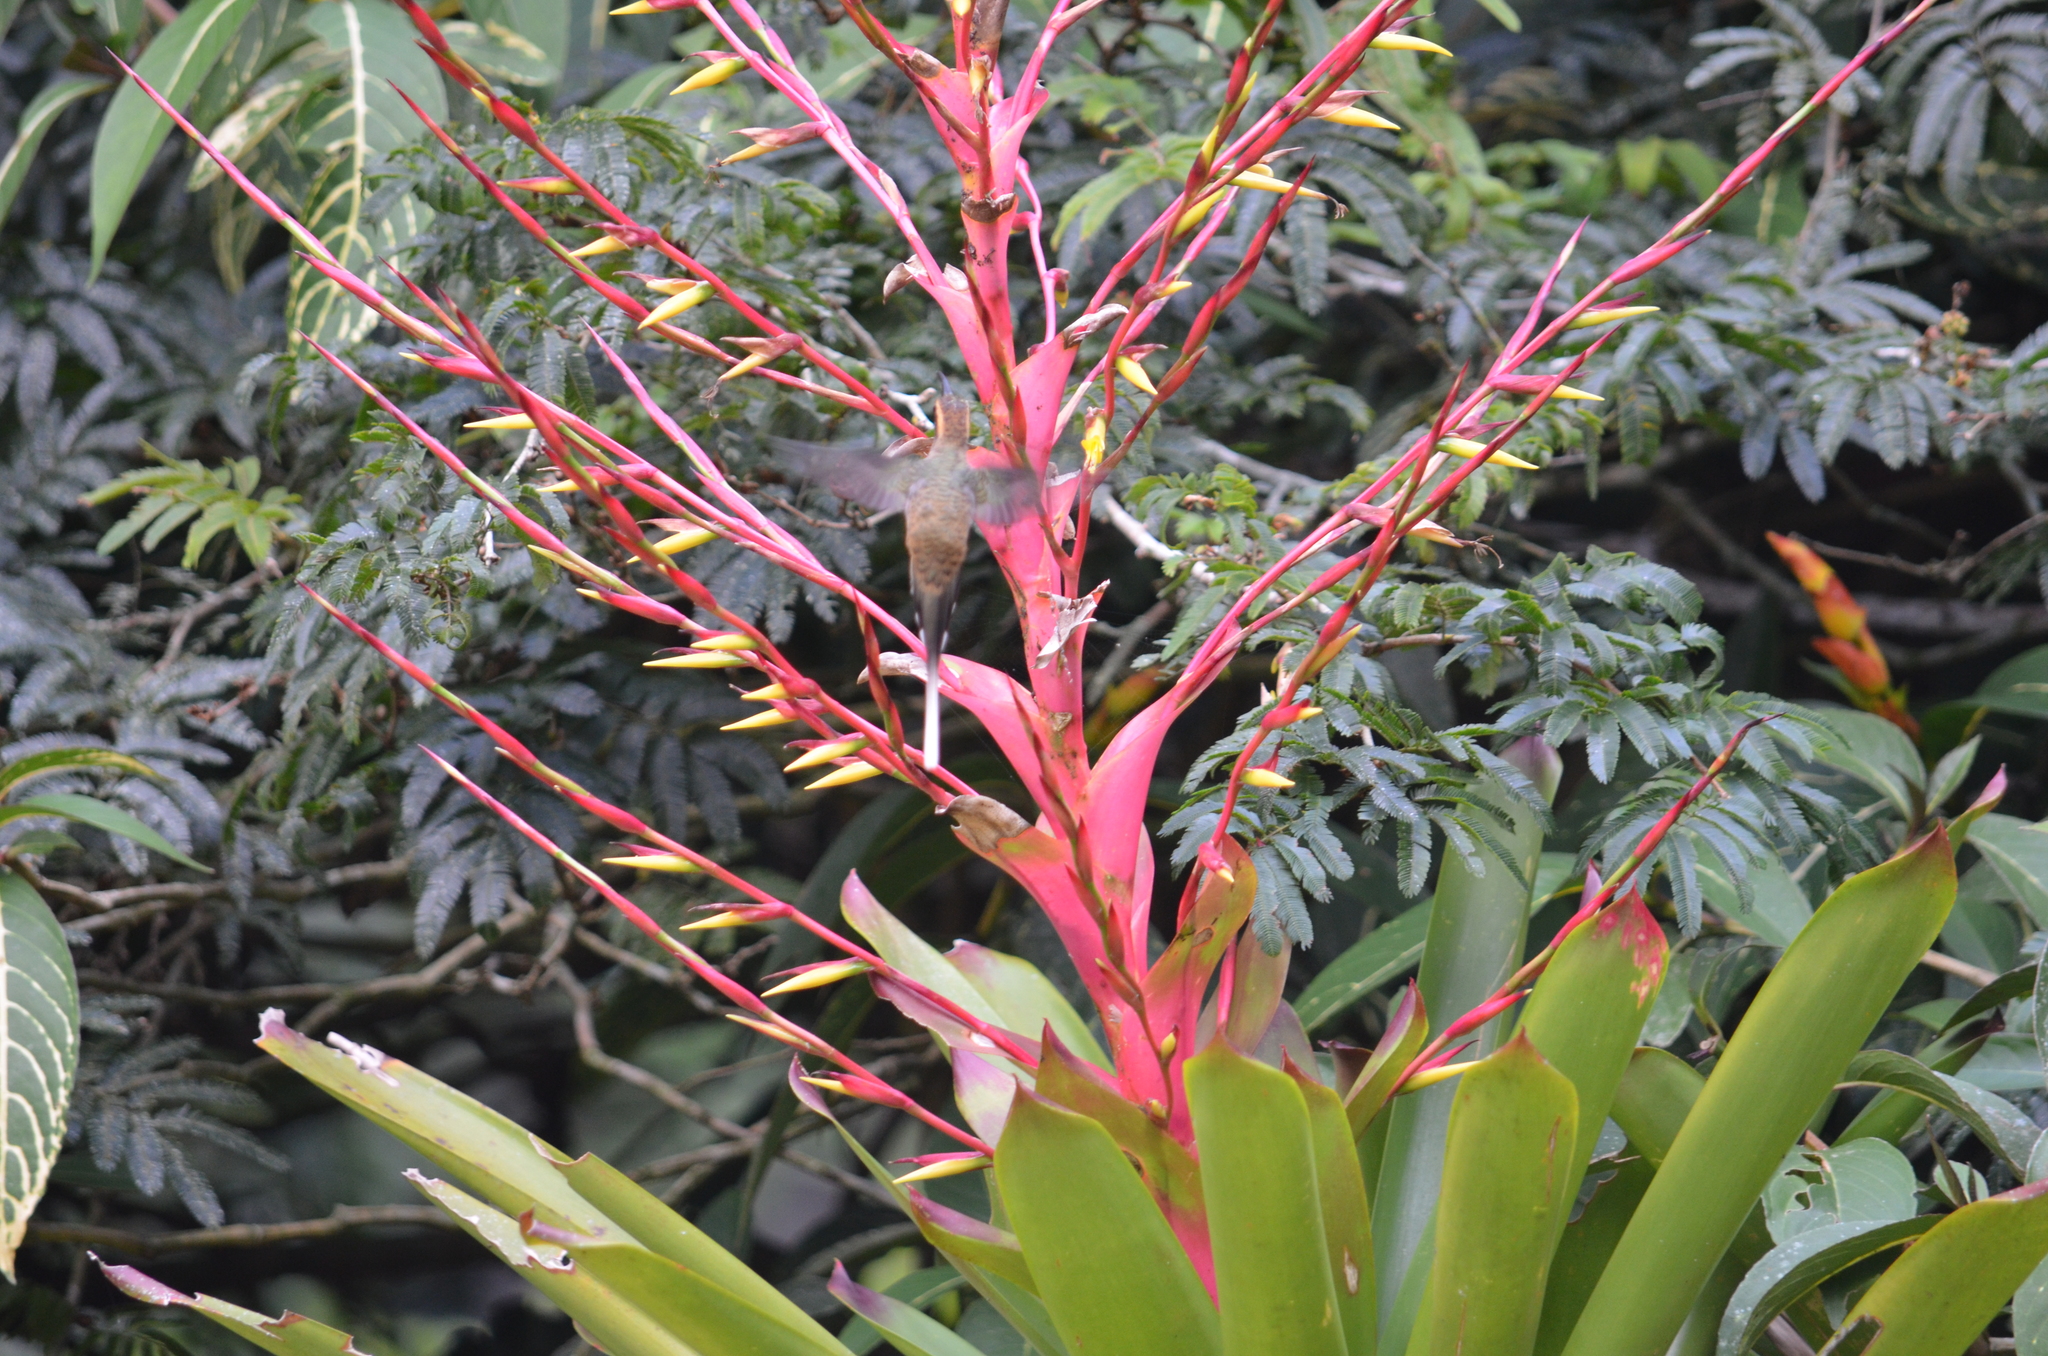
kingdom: Plantae
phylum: Tracheophyta
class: Liliopsida
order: Poales
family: Bromeliaceae
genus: Vriesea
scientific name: Vriesea philippocoburgi
